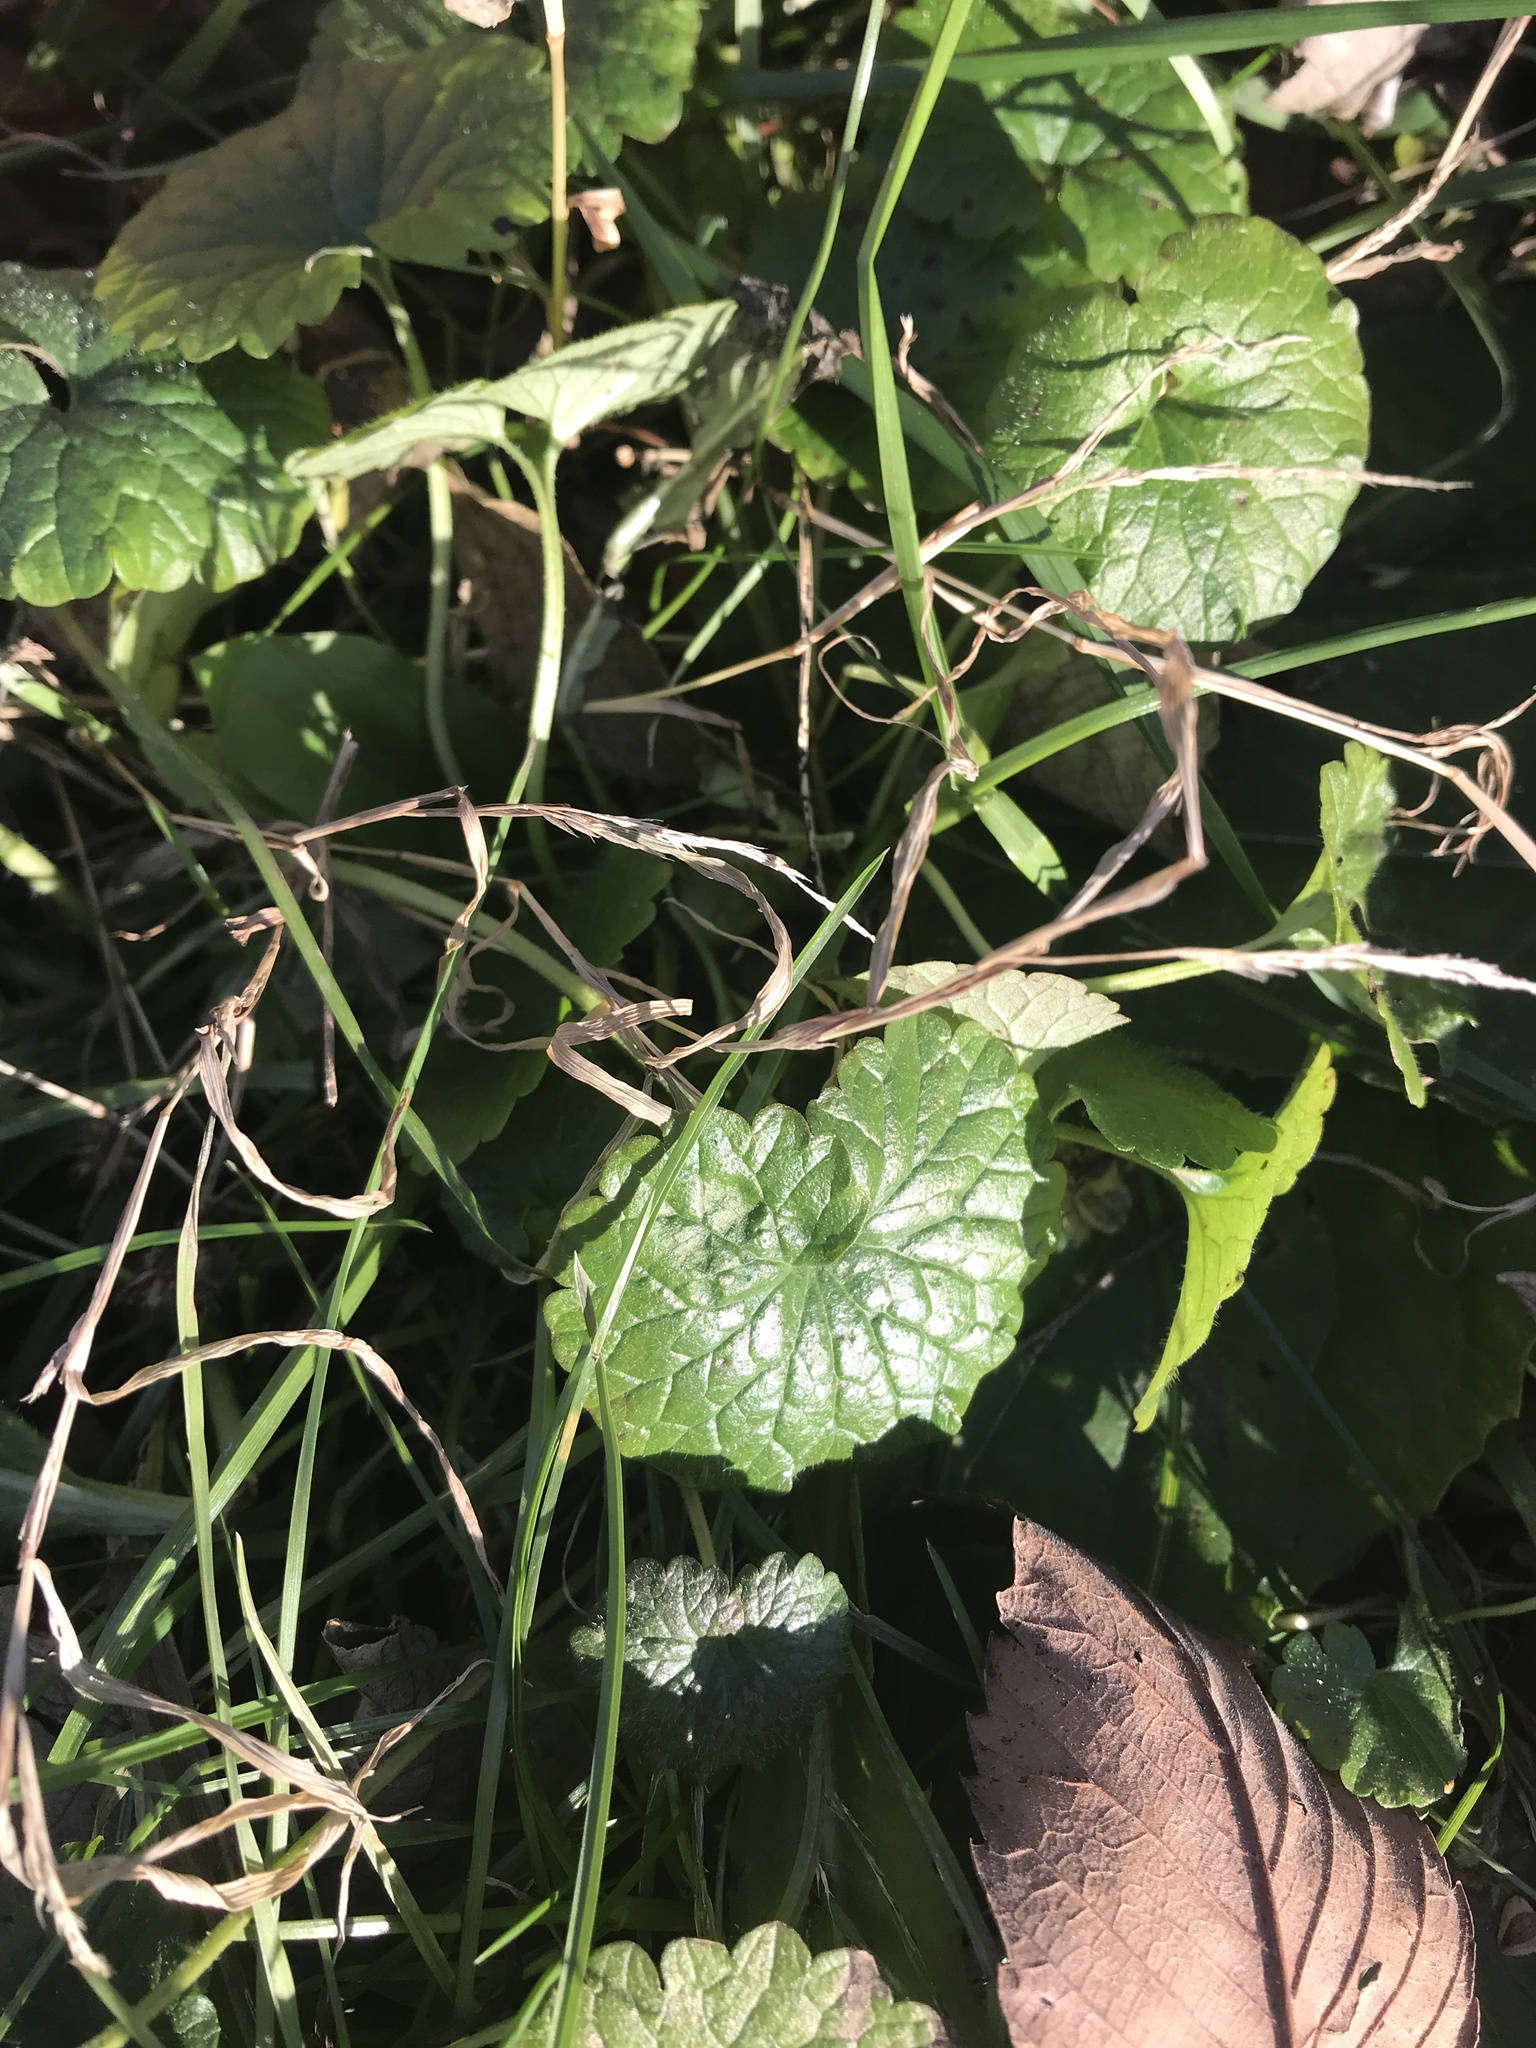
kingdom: Plantae
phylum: Tracheophyta
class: Magnoliopsida
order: Brassicales
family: Brassicaceae
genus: Alliaria
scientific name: Alliaria petiolata
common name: Garlic mustard
